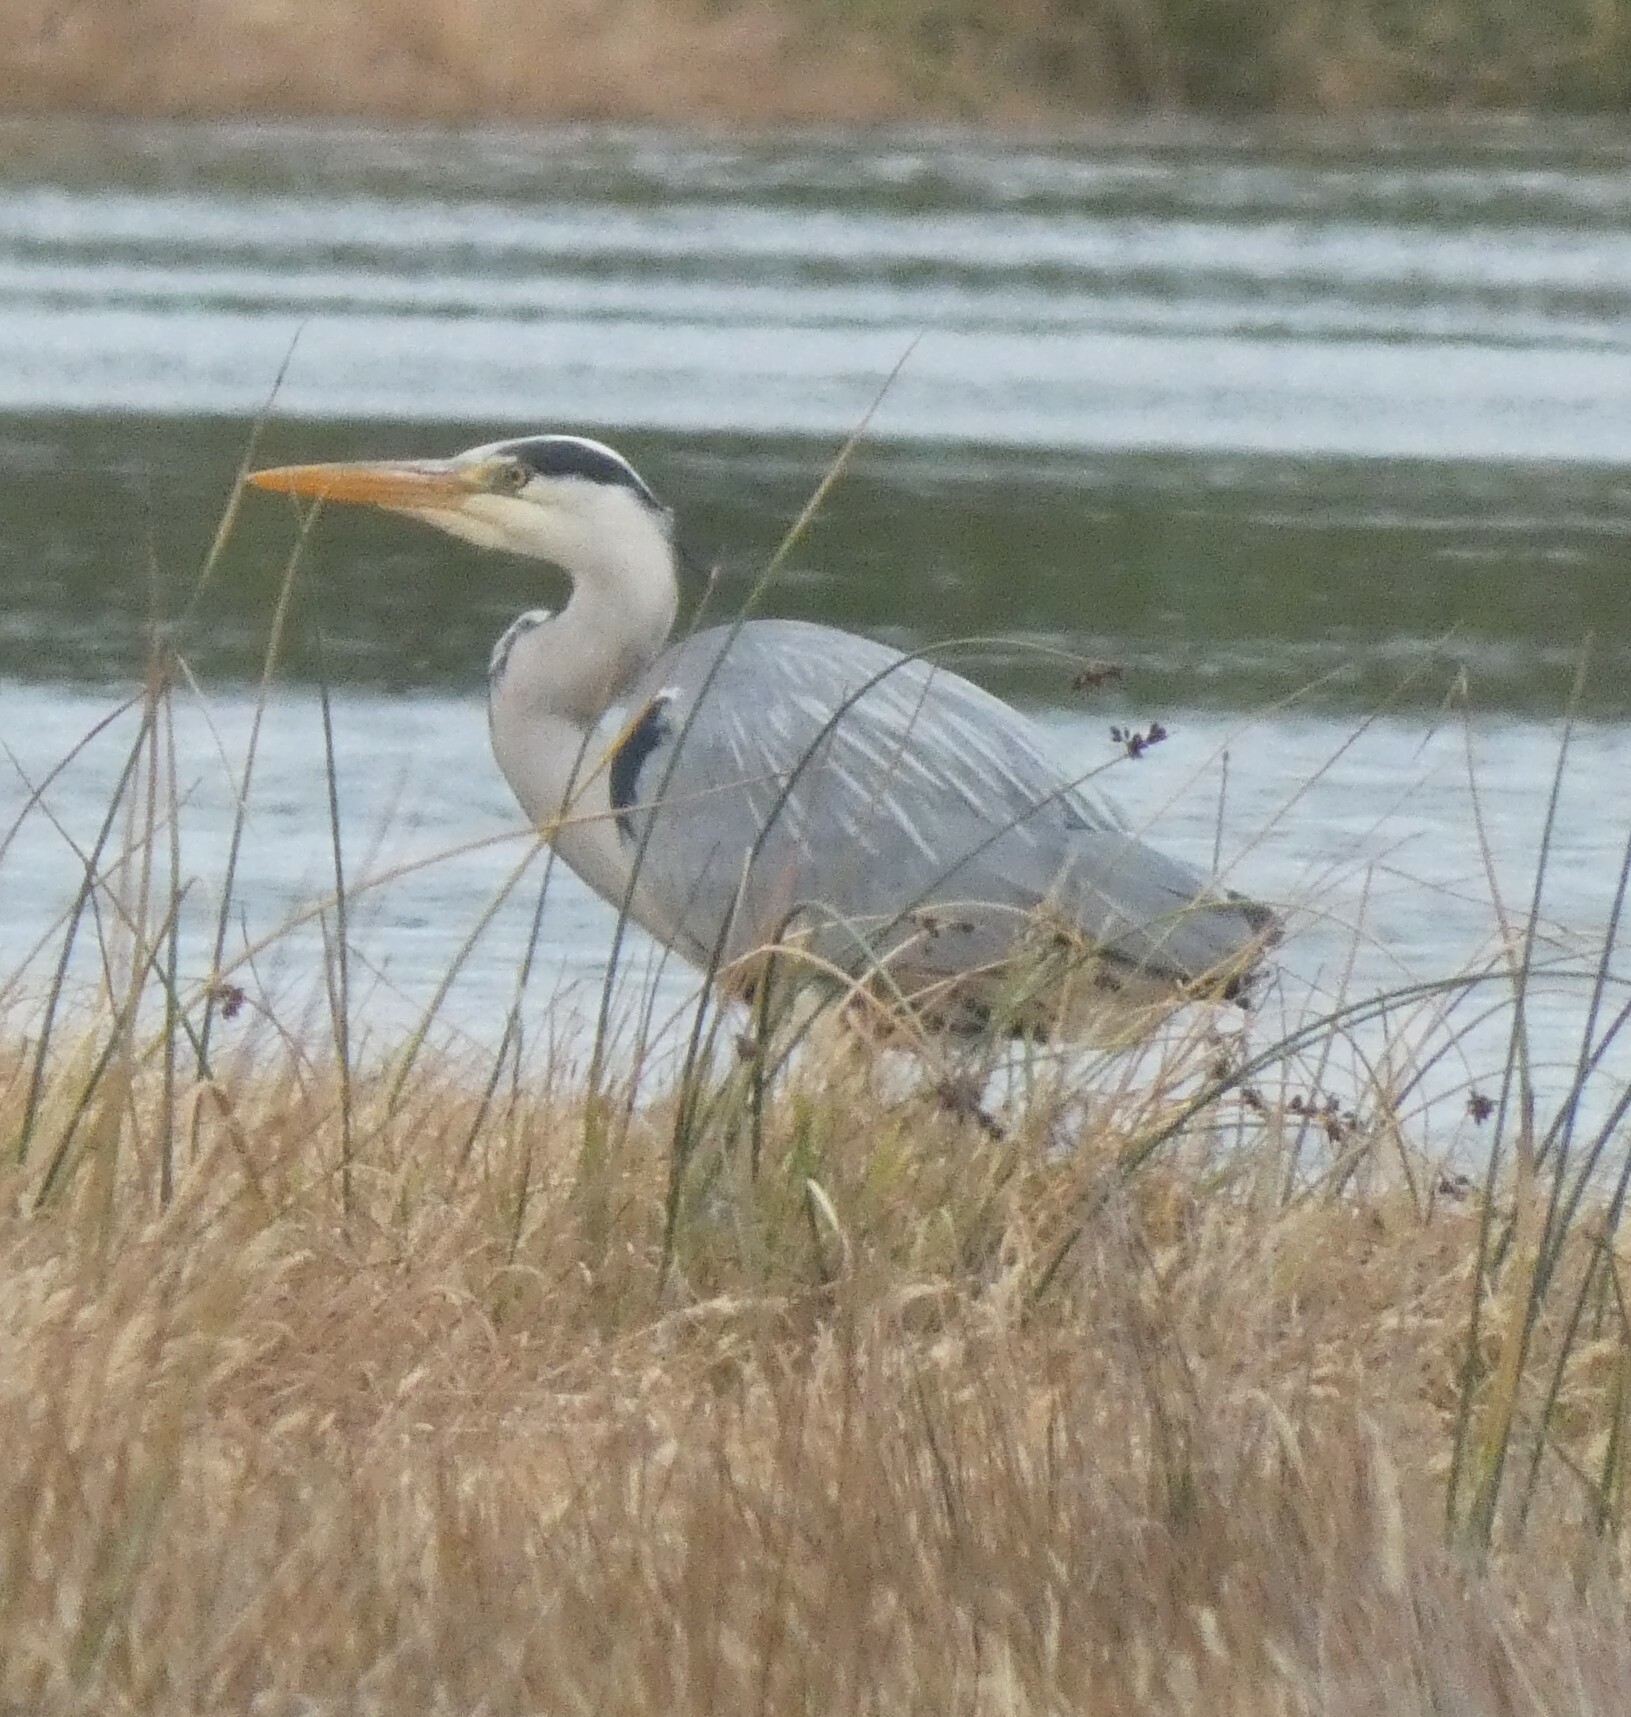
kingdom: Animalia
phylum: Chordata
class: Aves
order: Pelecaniformes
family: Ardeidae
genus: Ardea
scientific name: Ardea cinerea
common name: Grey heron
